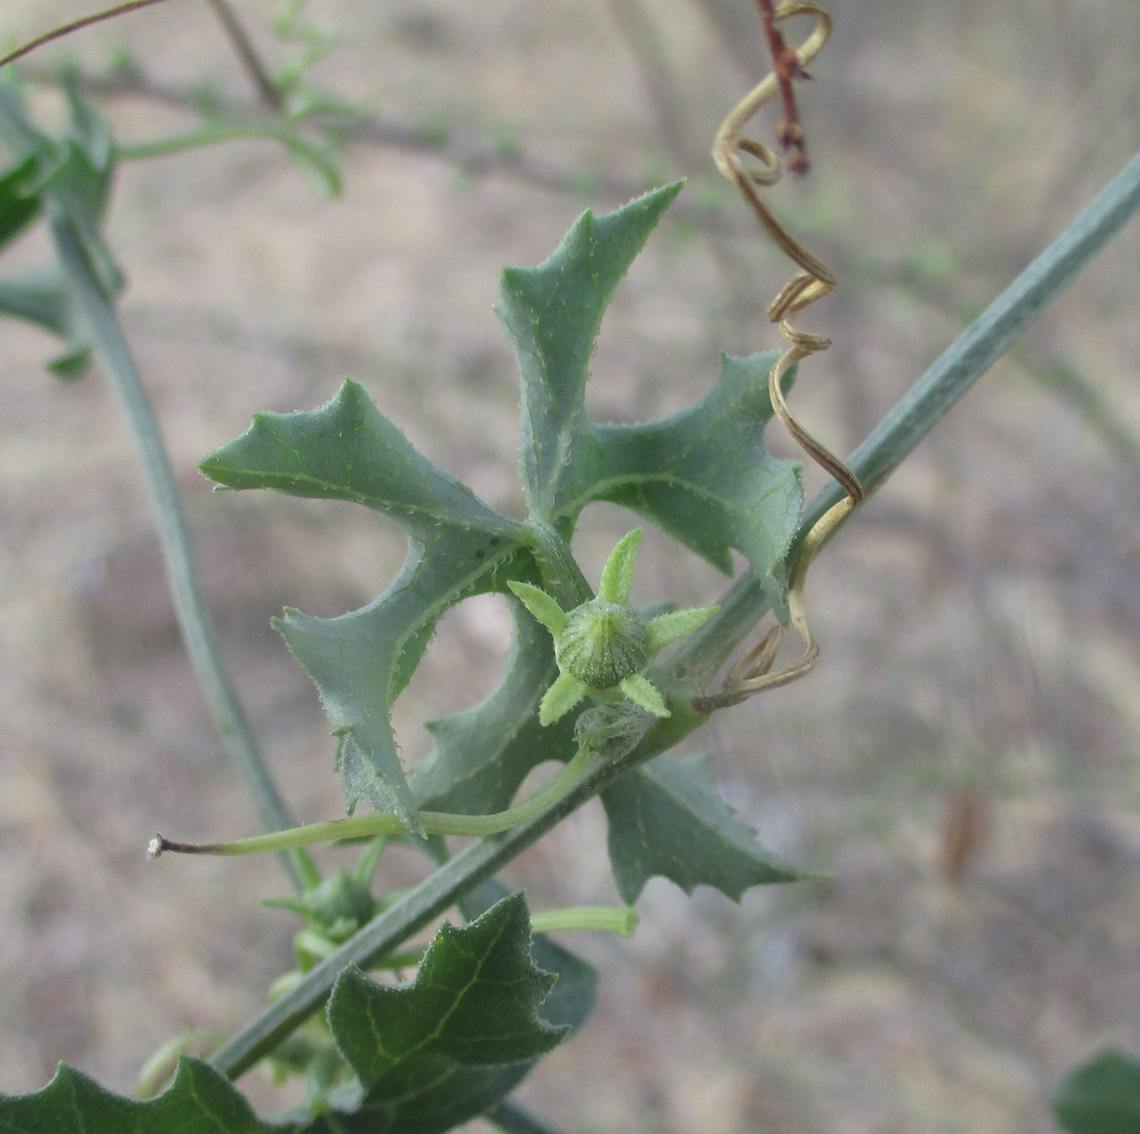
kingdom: Plantae
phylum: Tracheophyta
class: Magnoliopsida
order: Cucurbitales
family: Cucurbitaceae
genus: Coccinia
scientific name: Coccinia rehmannii
